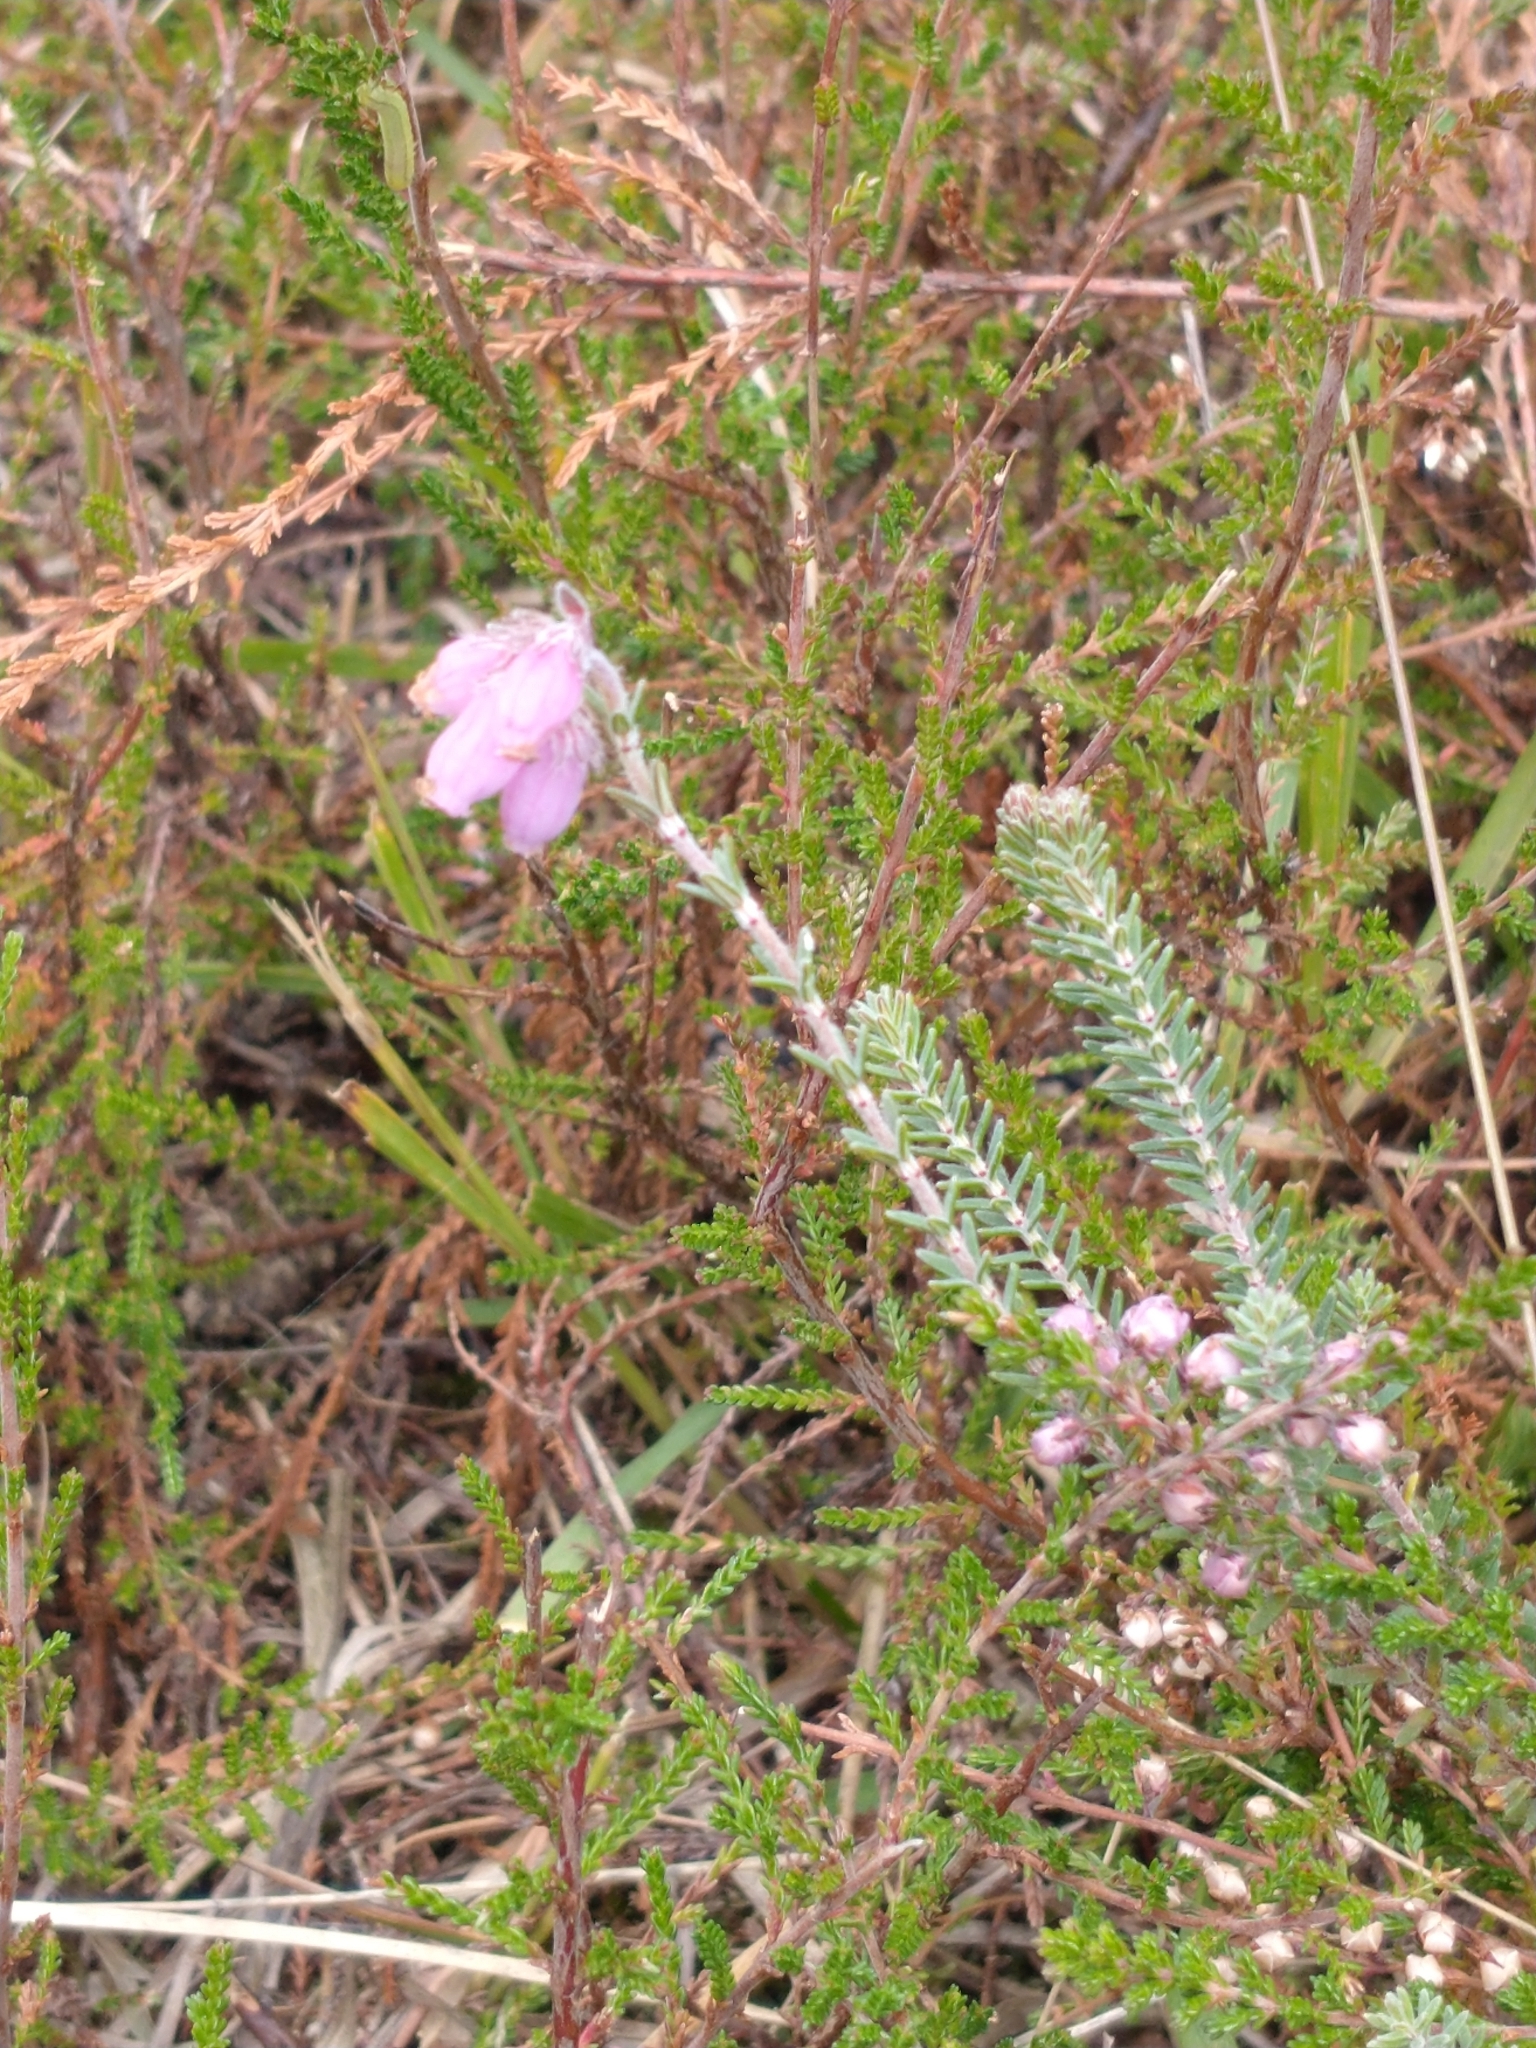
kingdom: Plantae
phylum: Tracheophyta
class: Magnoliopsida
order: Ericales
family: Ericaceae
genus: Erica
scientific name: Erica tetralix
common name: Cross-leaved heath
